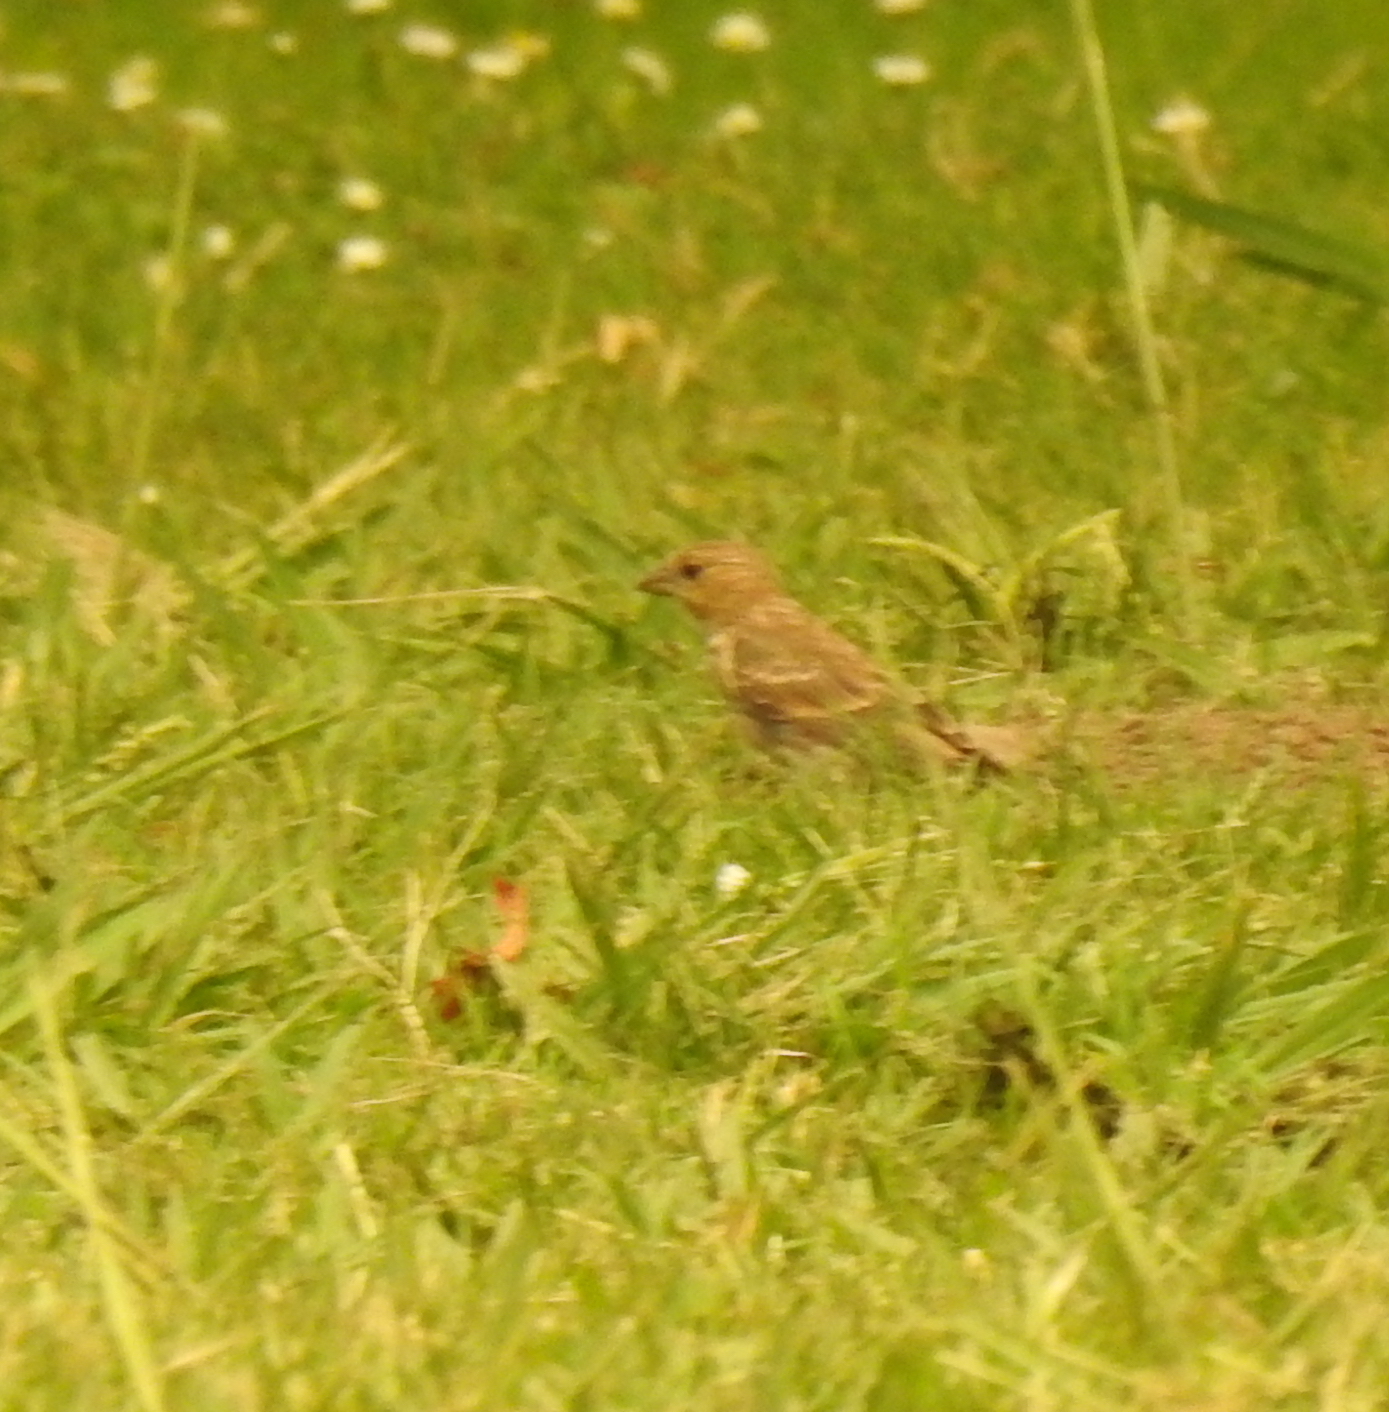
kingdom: Animalia
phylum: Chordata
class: Aves
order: Passeriformes
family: Fringillidae
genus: Haemorhous
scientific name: Haemorhous mexicanus
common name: House finch
